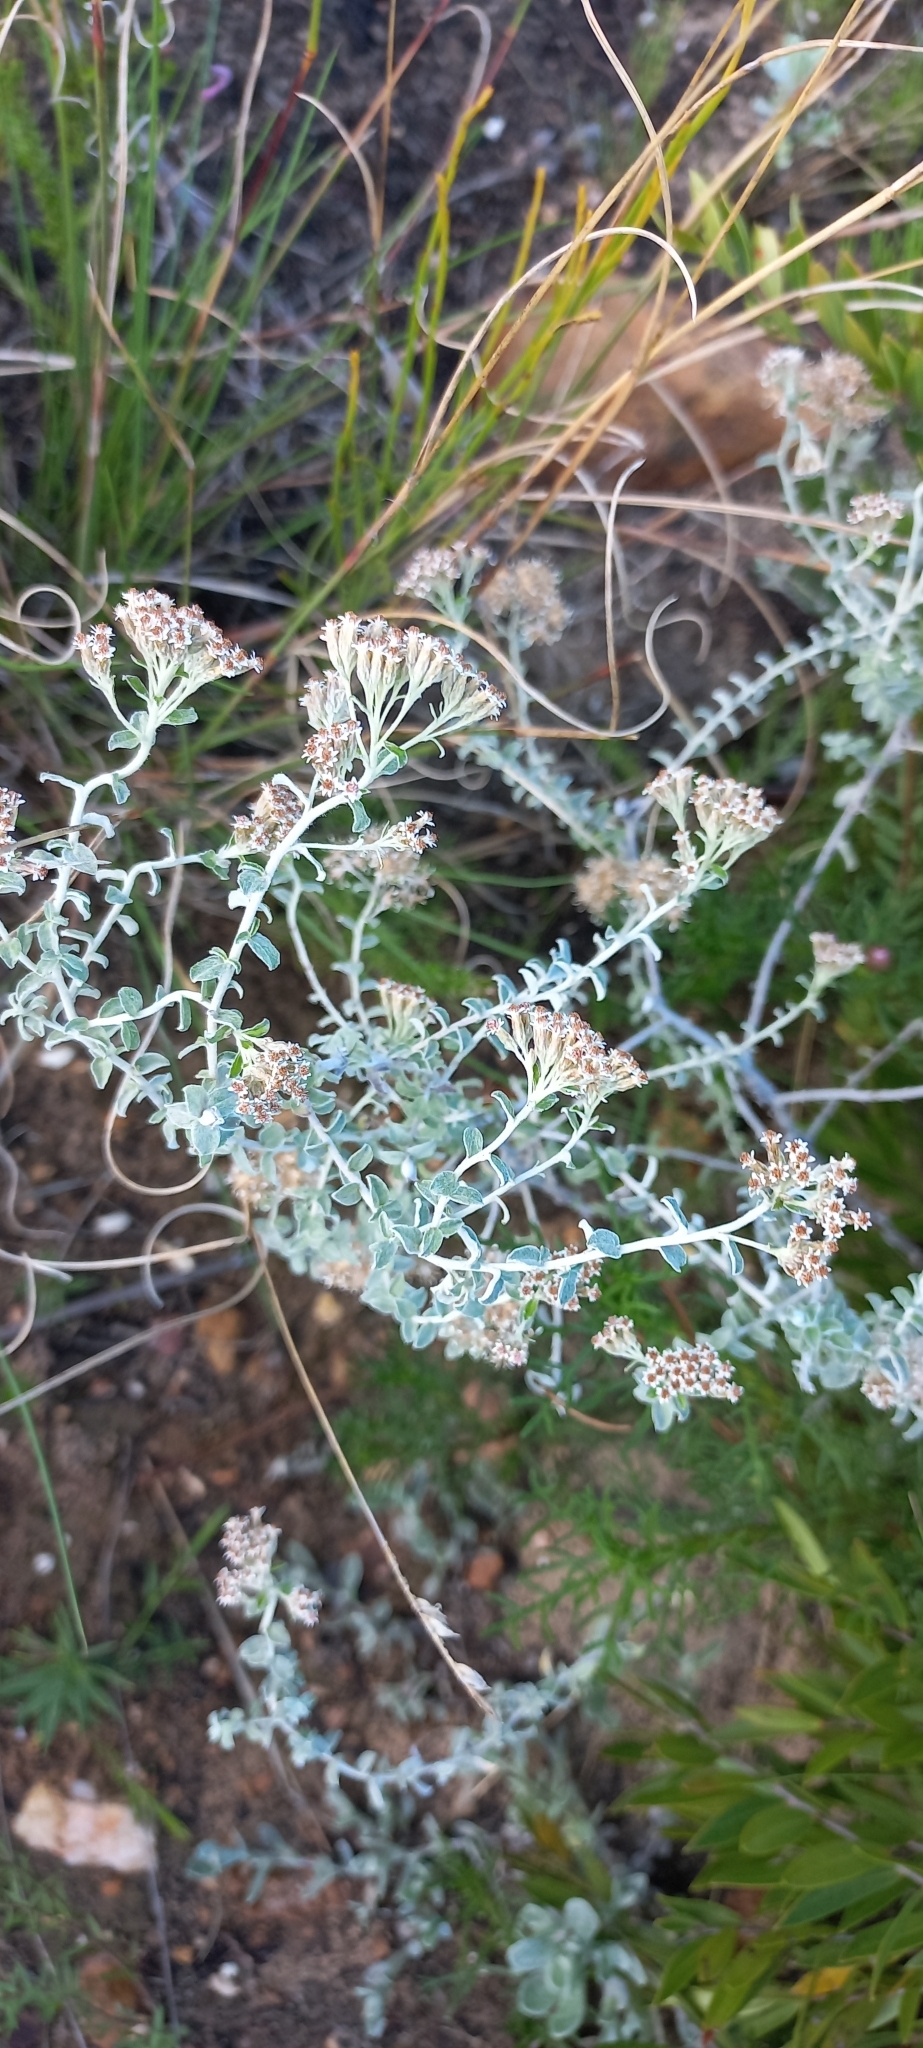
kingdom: Plantae
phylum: Tracheophyta
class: Magnoliopsida
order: Asterales
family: Asteraceae
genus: Plecostachys
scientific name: Plecostachys serpyllifolia
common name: Petite licorice
